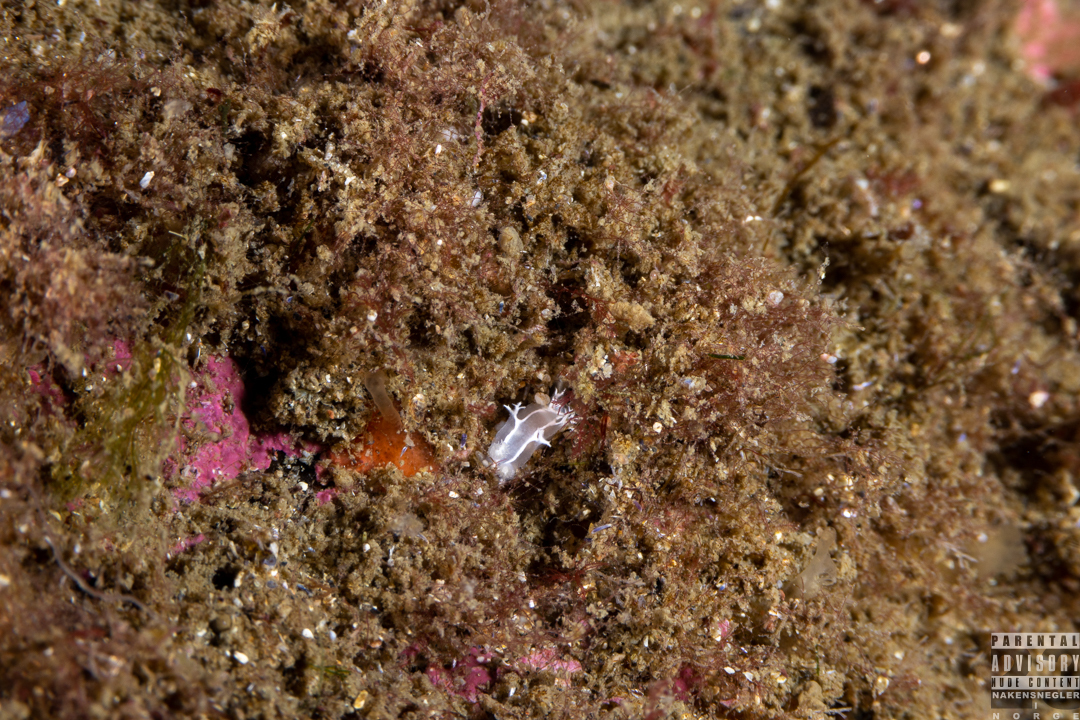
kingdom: Animalia
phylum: Mollusca
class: Gastropoda
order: Nudibranchia
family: Tritoniidae
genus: Duvaucelia
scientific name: Duvaucelia lineata
